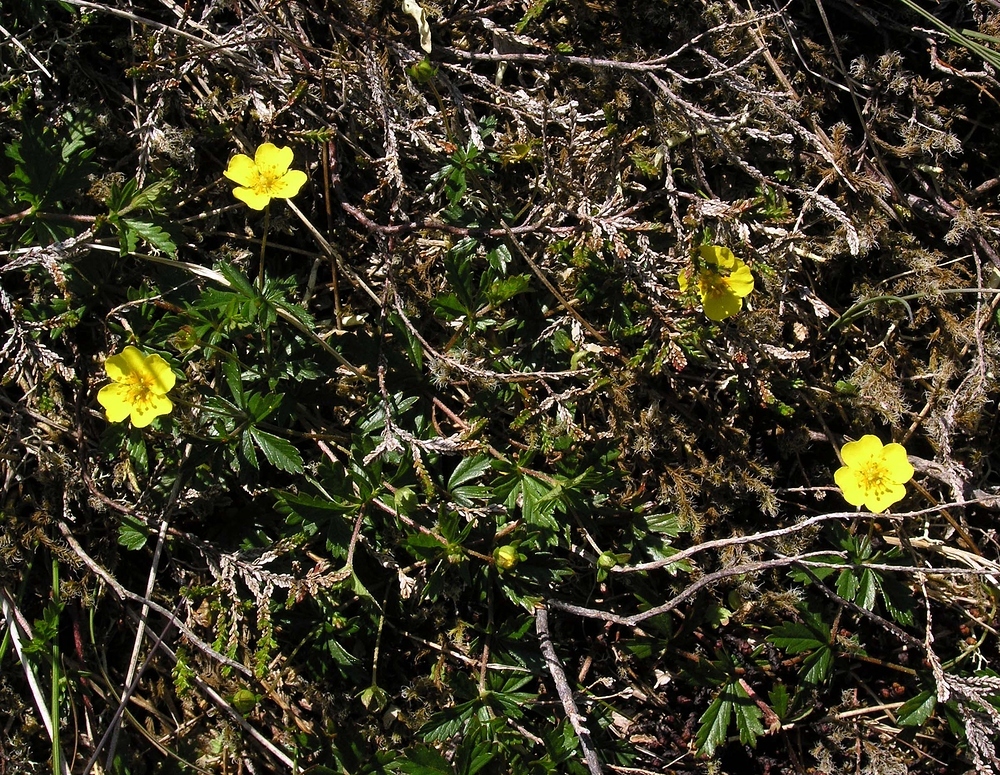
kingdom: Plantae
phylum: Tracheophyta
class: Magnoliopsida
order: Rosales
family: Rosaceae
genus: Potentilla
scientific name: Potentilla erecta
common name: Tormentil
